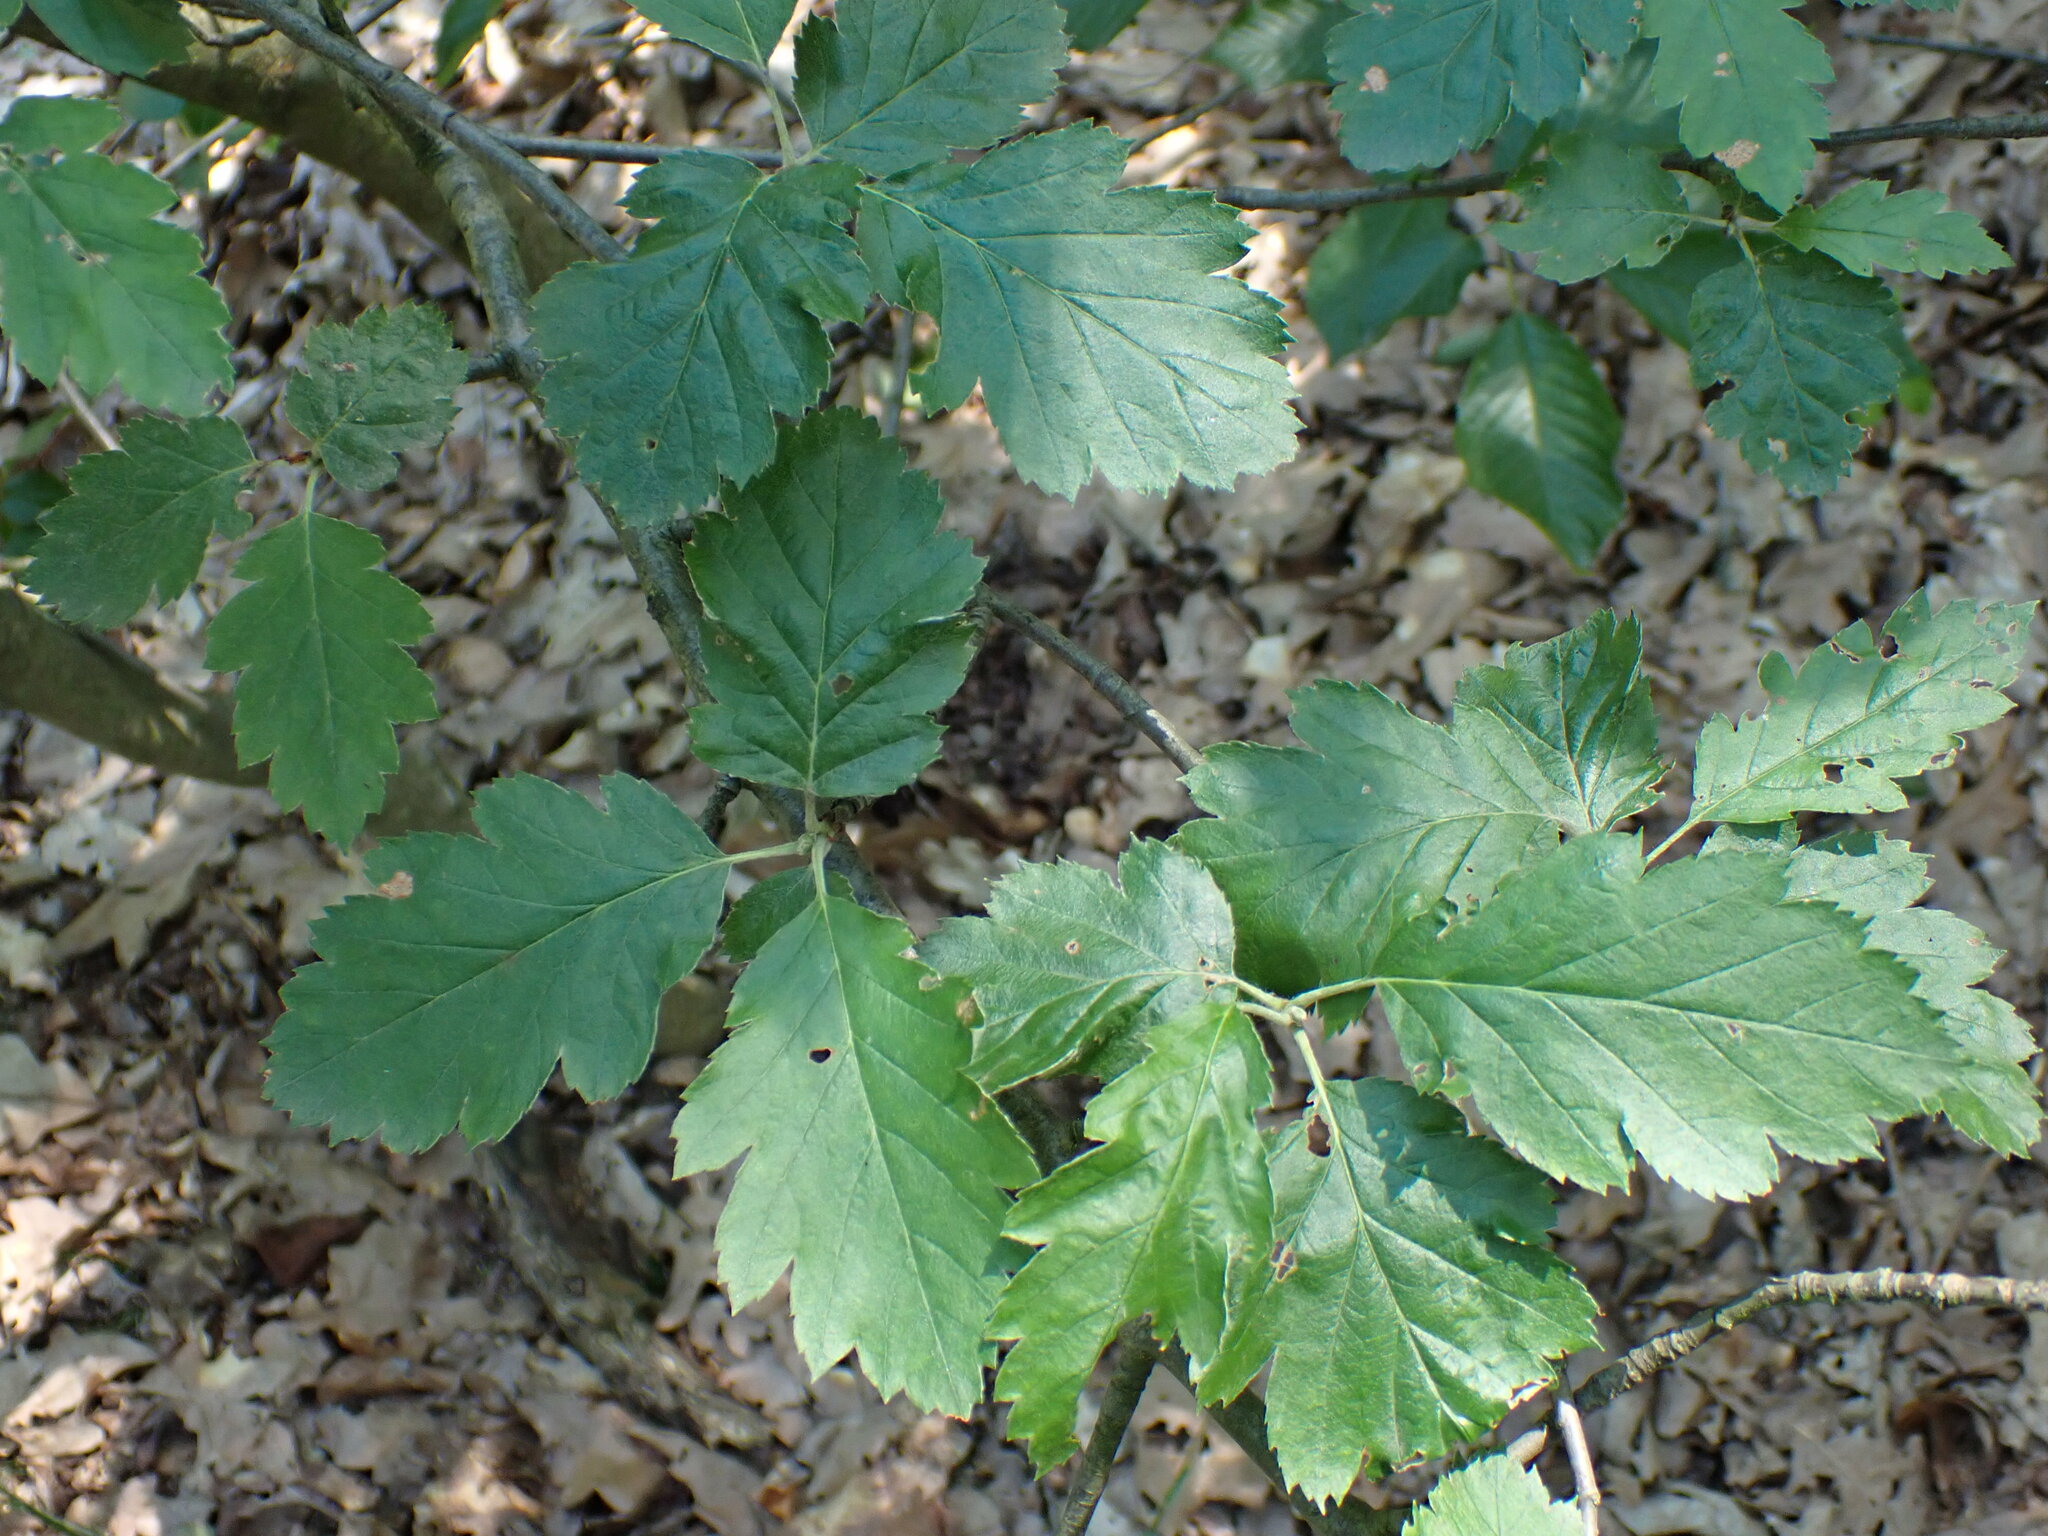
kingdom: Plantae
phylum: Tracheophyta
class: Magnoliopsida
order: Rosales
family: Rosaceae
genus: Scandosorbus
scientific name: Scandosorbus intermedia
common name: Swedish whitebeam
